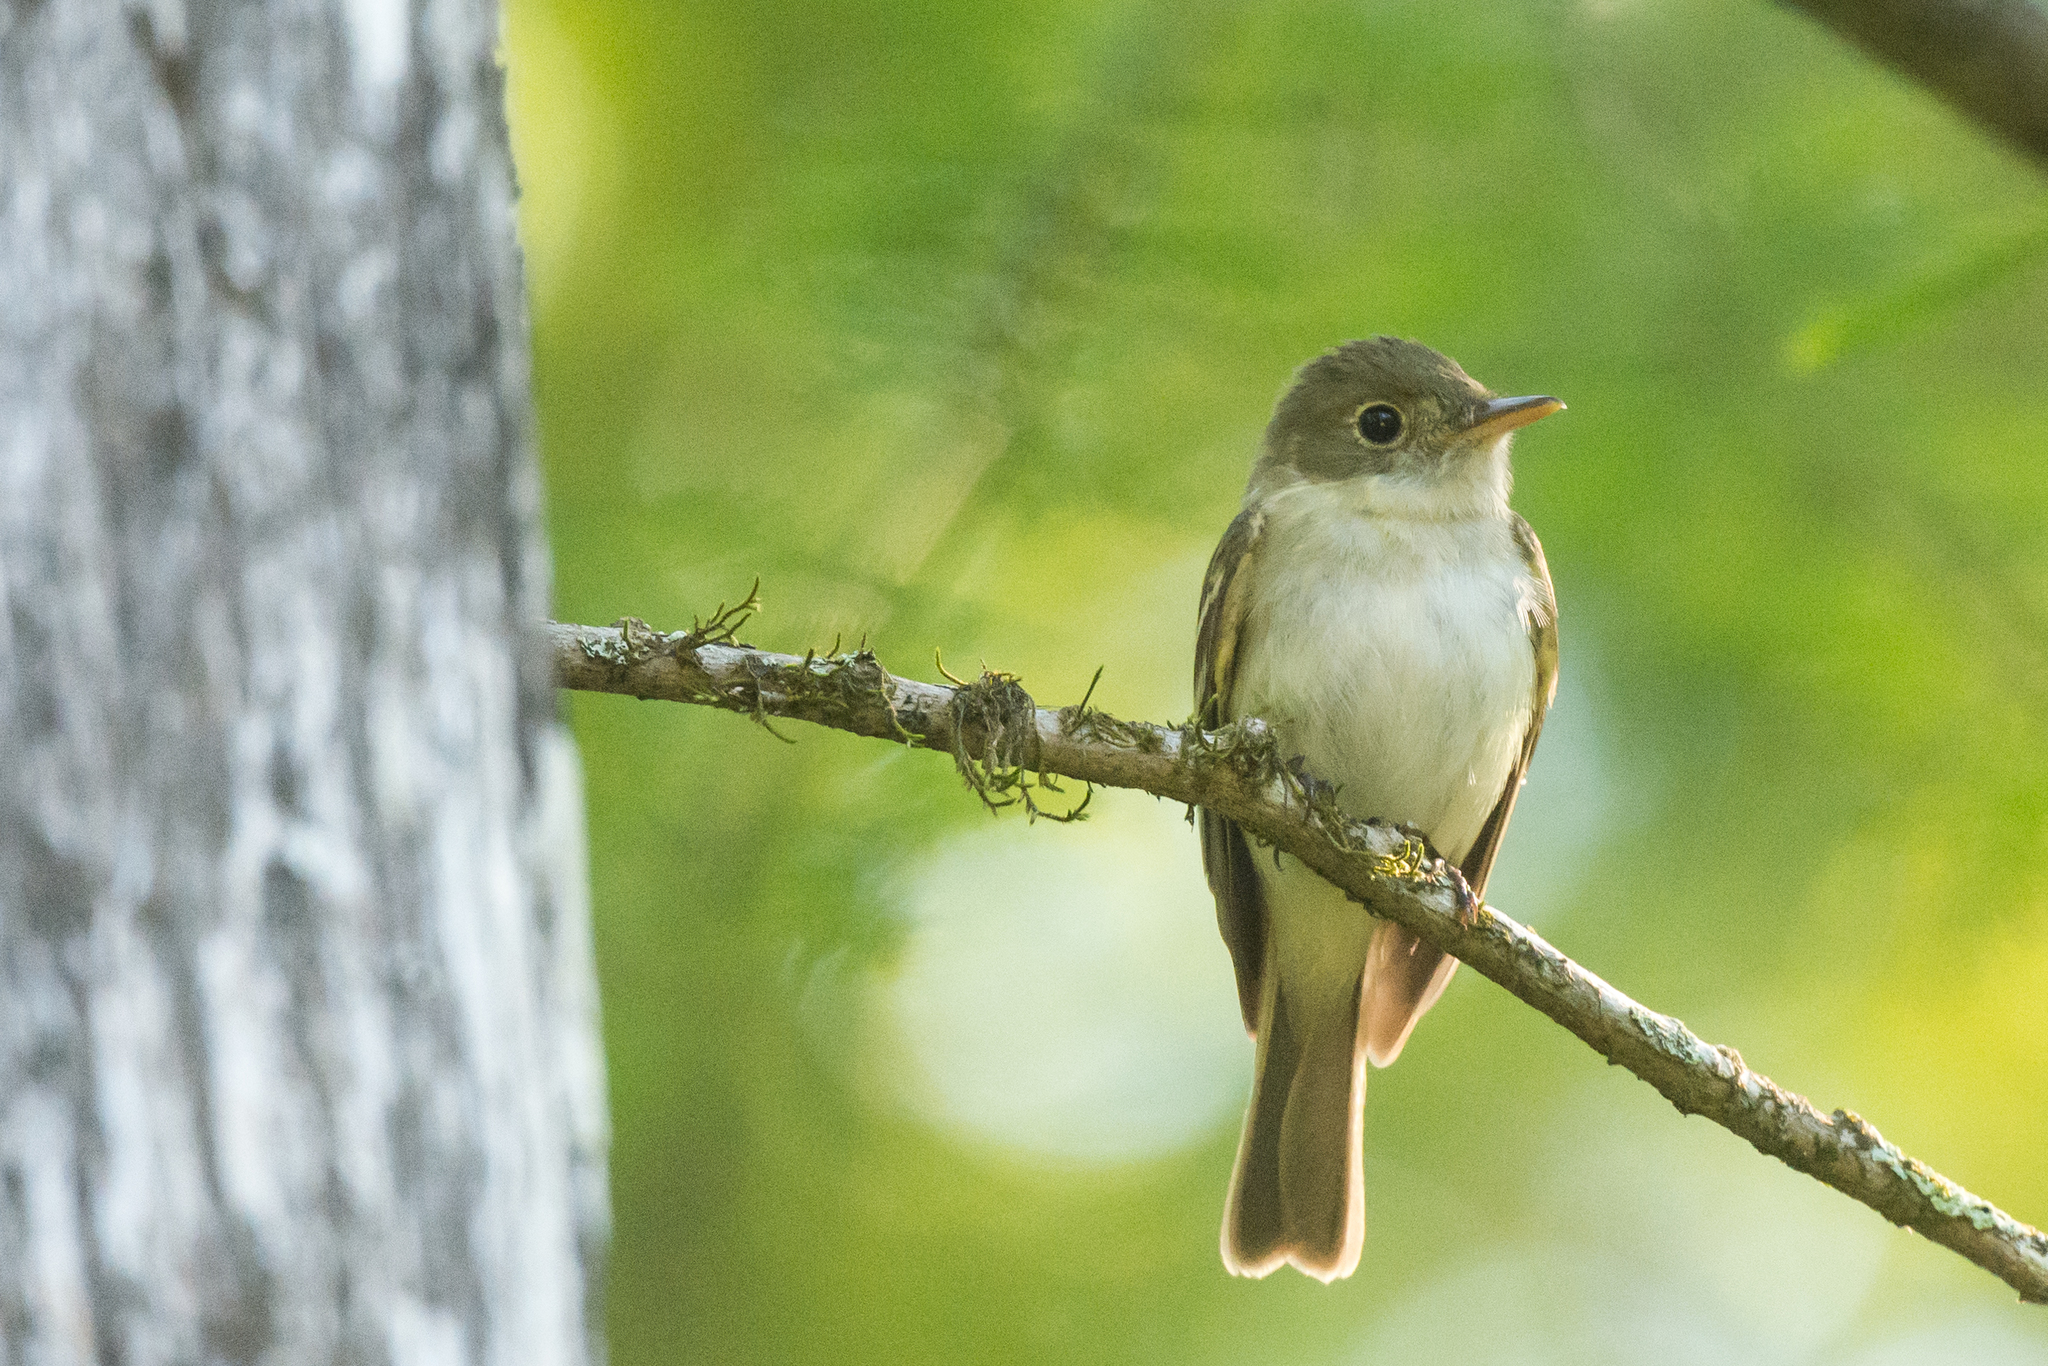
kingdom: Animalia
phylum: Chordata
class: Aves
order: Passeriformes
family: Tyrannidae
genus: Empidonax
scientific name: Empidonax virescens
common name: Acadian flycatcher
